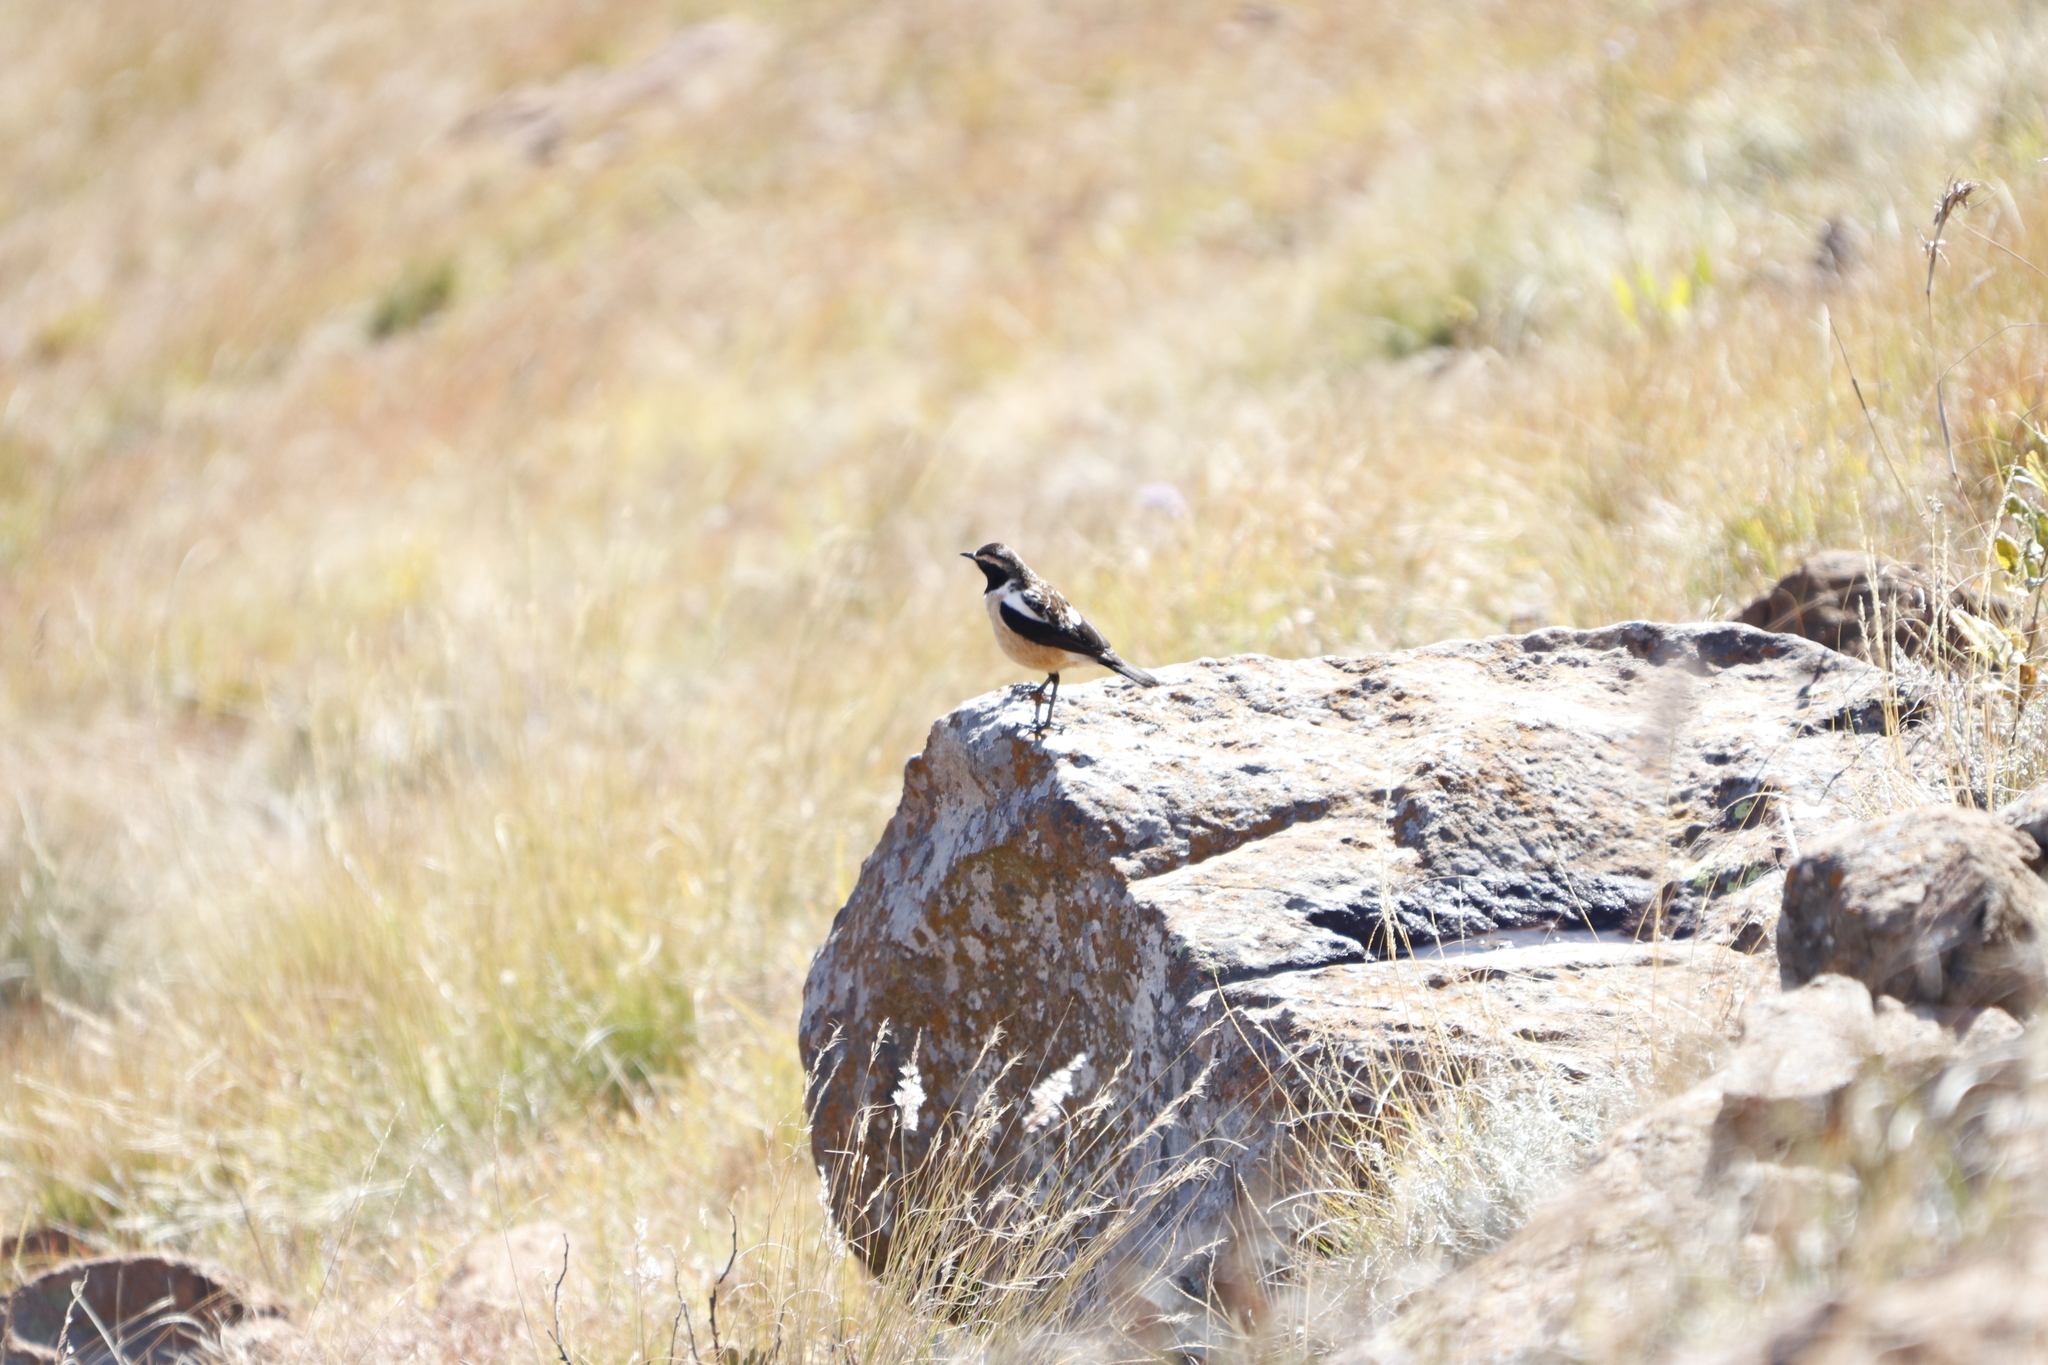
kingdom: Animalia
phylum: Chordata
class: Aves
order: Passeriformes
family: Muscicapidae
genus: Campicoloides
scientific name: Campicoloides bifasciatus
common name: Buff-streaked chat
